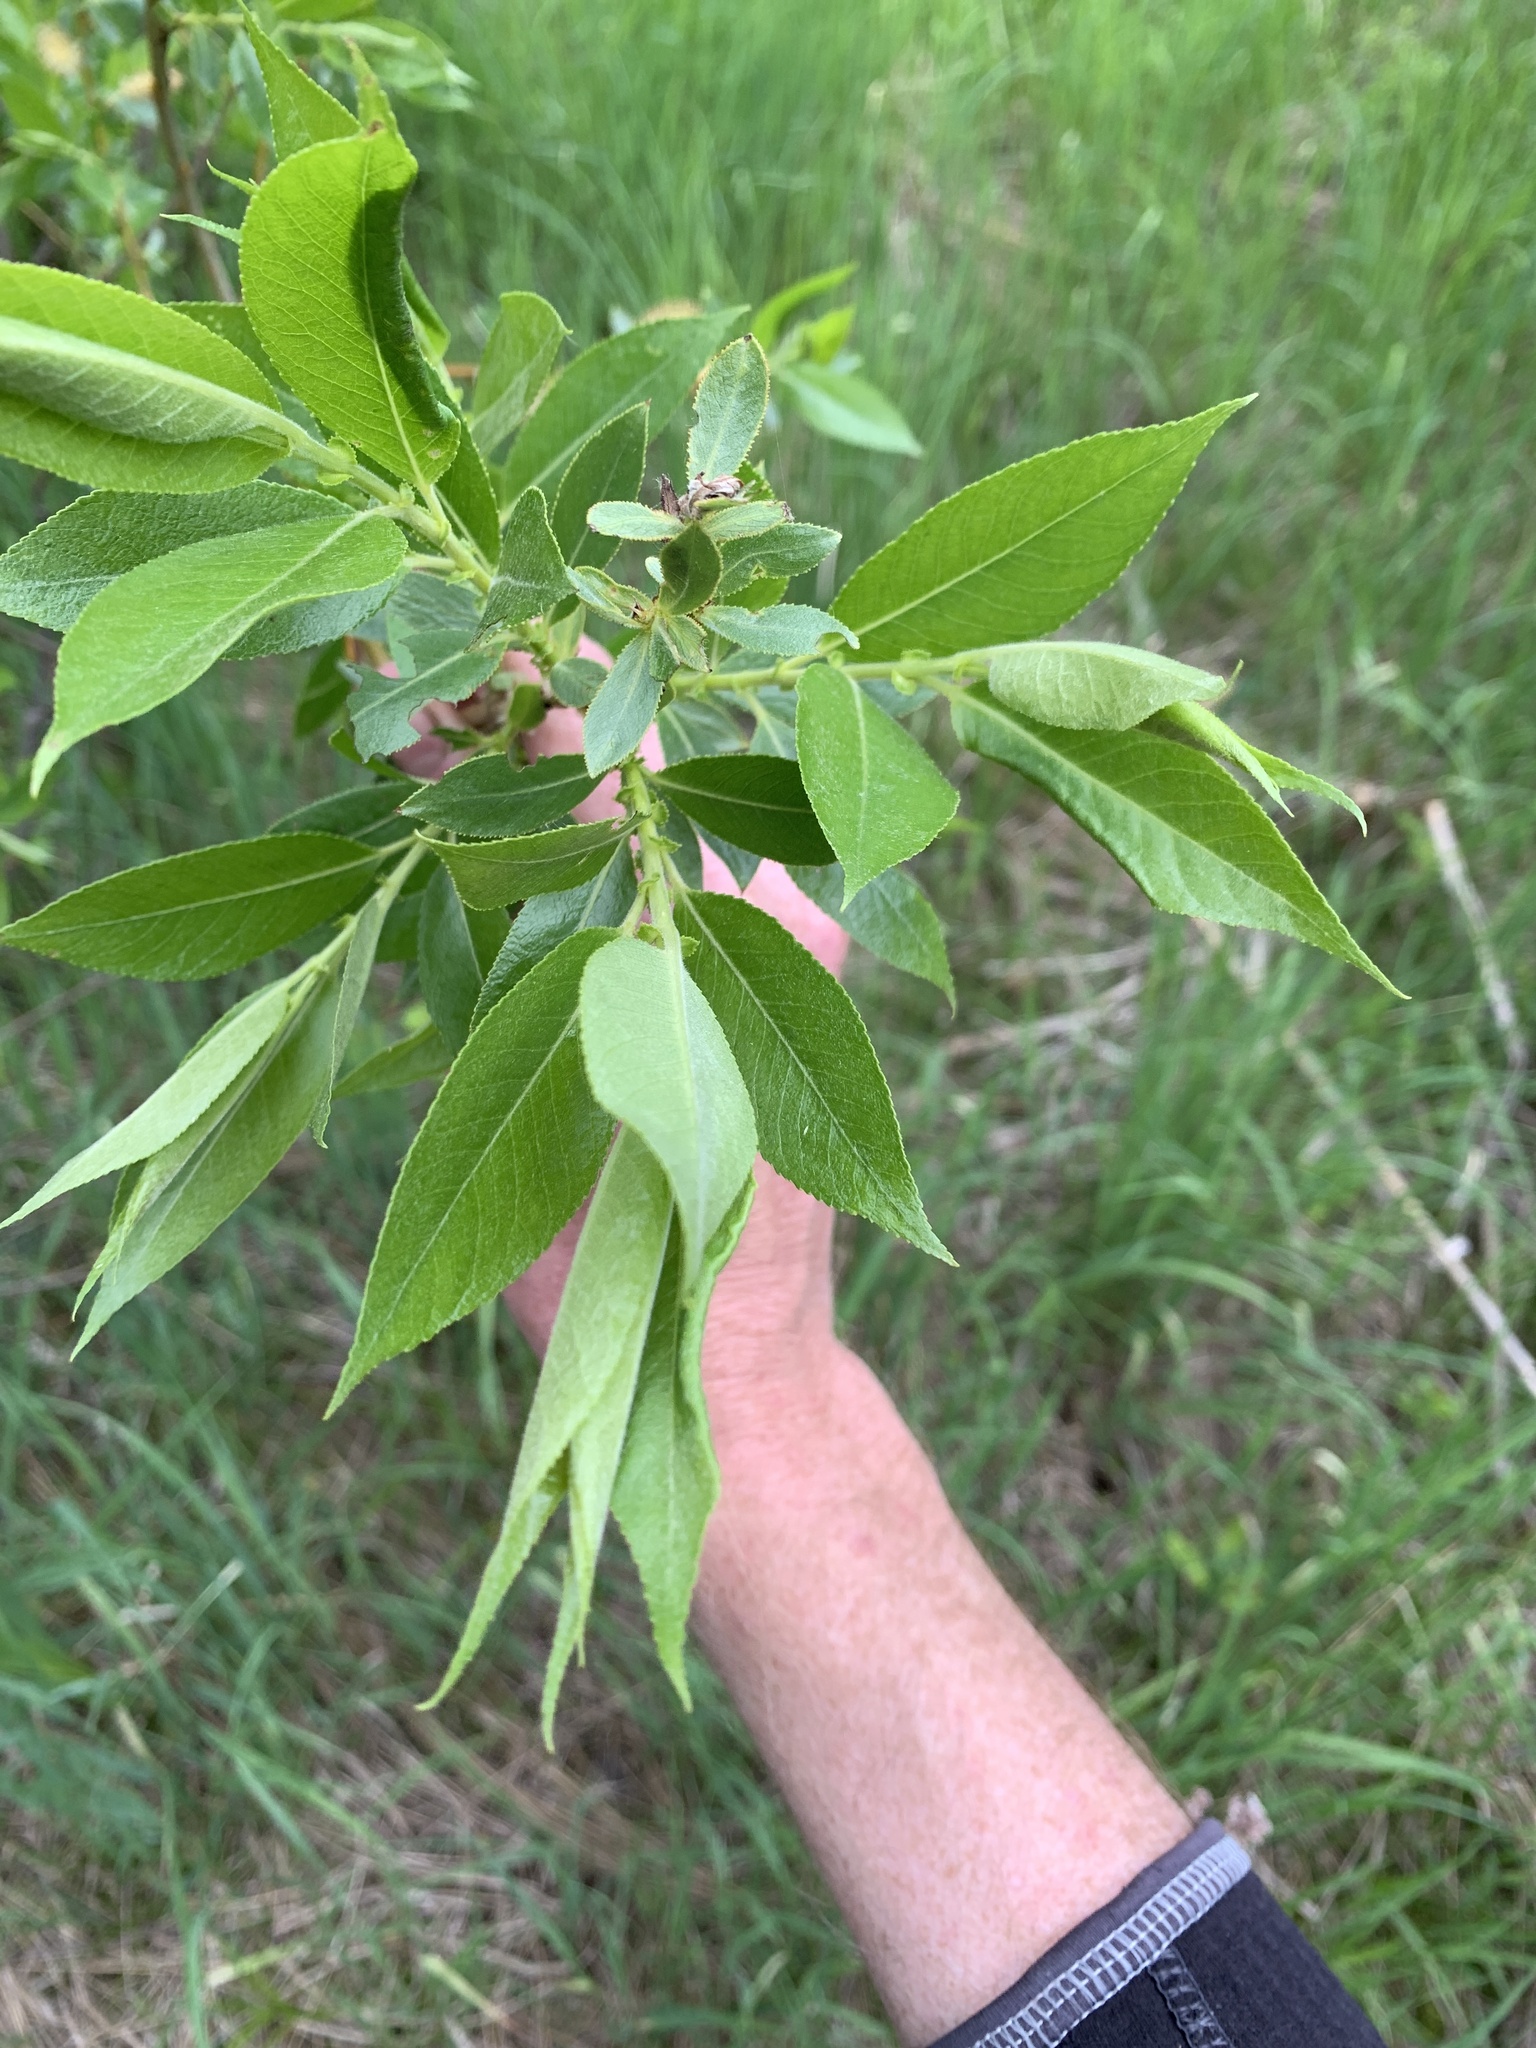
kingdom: Plantae
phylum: Tracheophyta
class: Magnoliopsida
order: Malpighiales
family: Salicaceae
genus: Salix
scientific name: Salix eriocephala
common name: Heart-leaved willow
